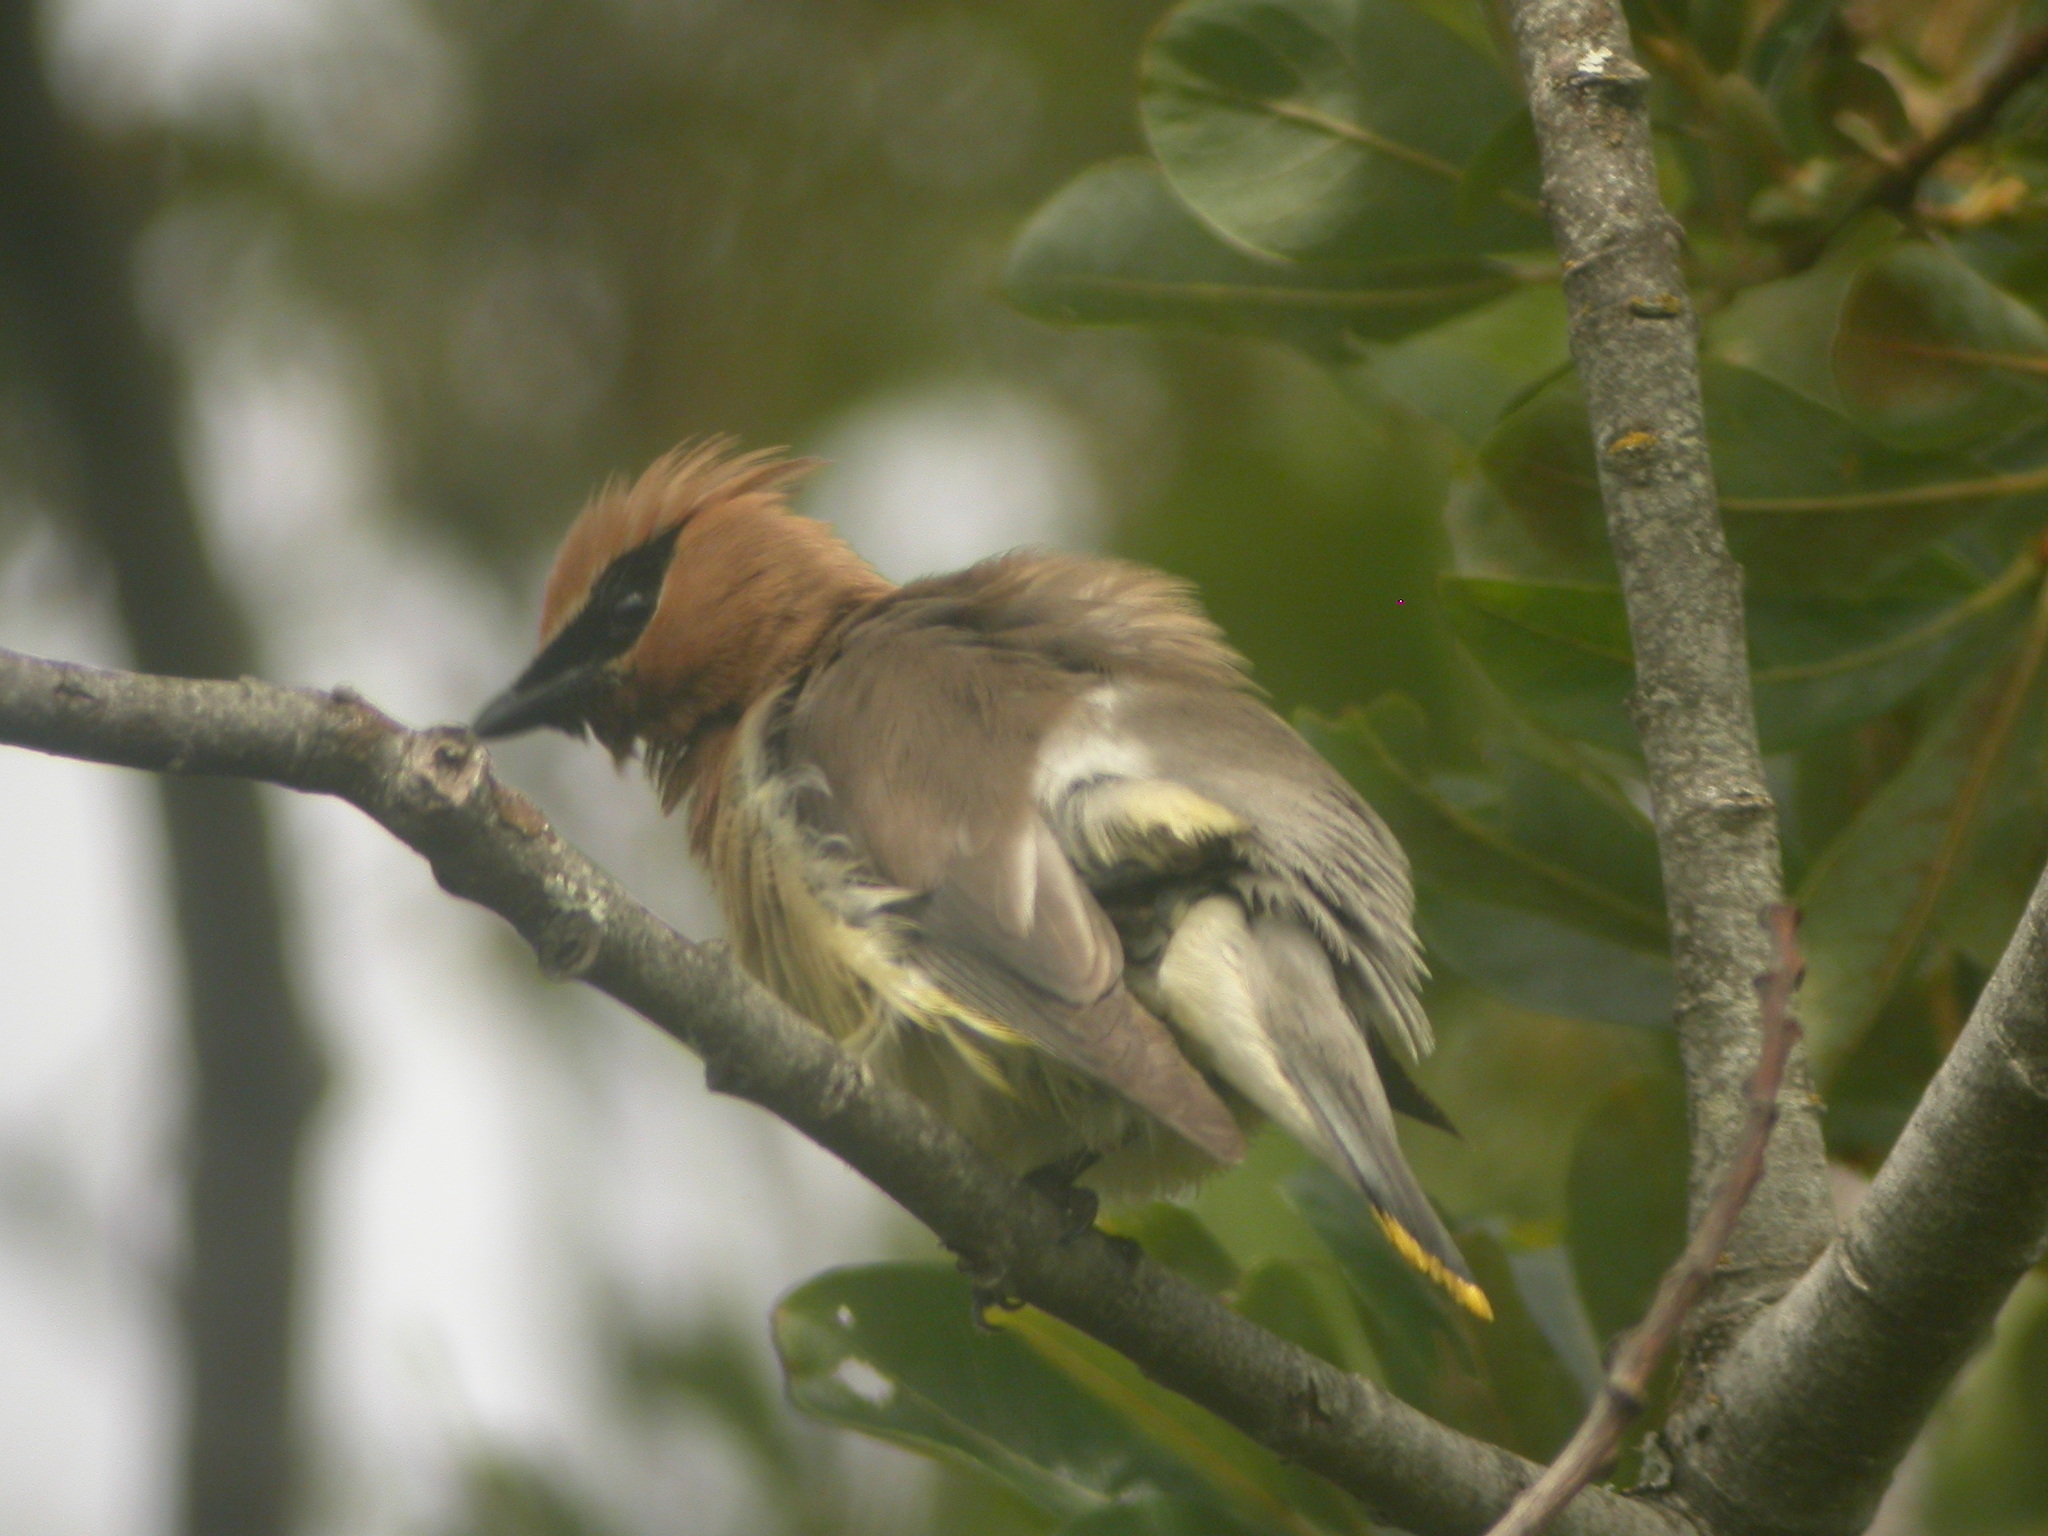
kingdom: Animalia
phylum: Chordata
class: Aves
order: Passeriformes
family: Bombycillidae
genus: Bombycilla
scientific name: Bombycilla cedrorum
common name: Cedar waxwing
